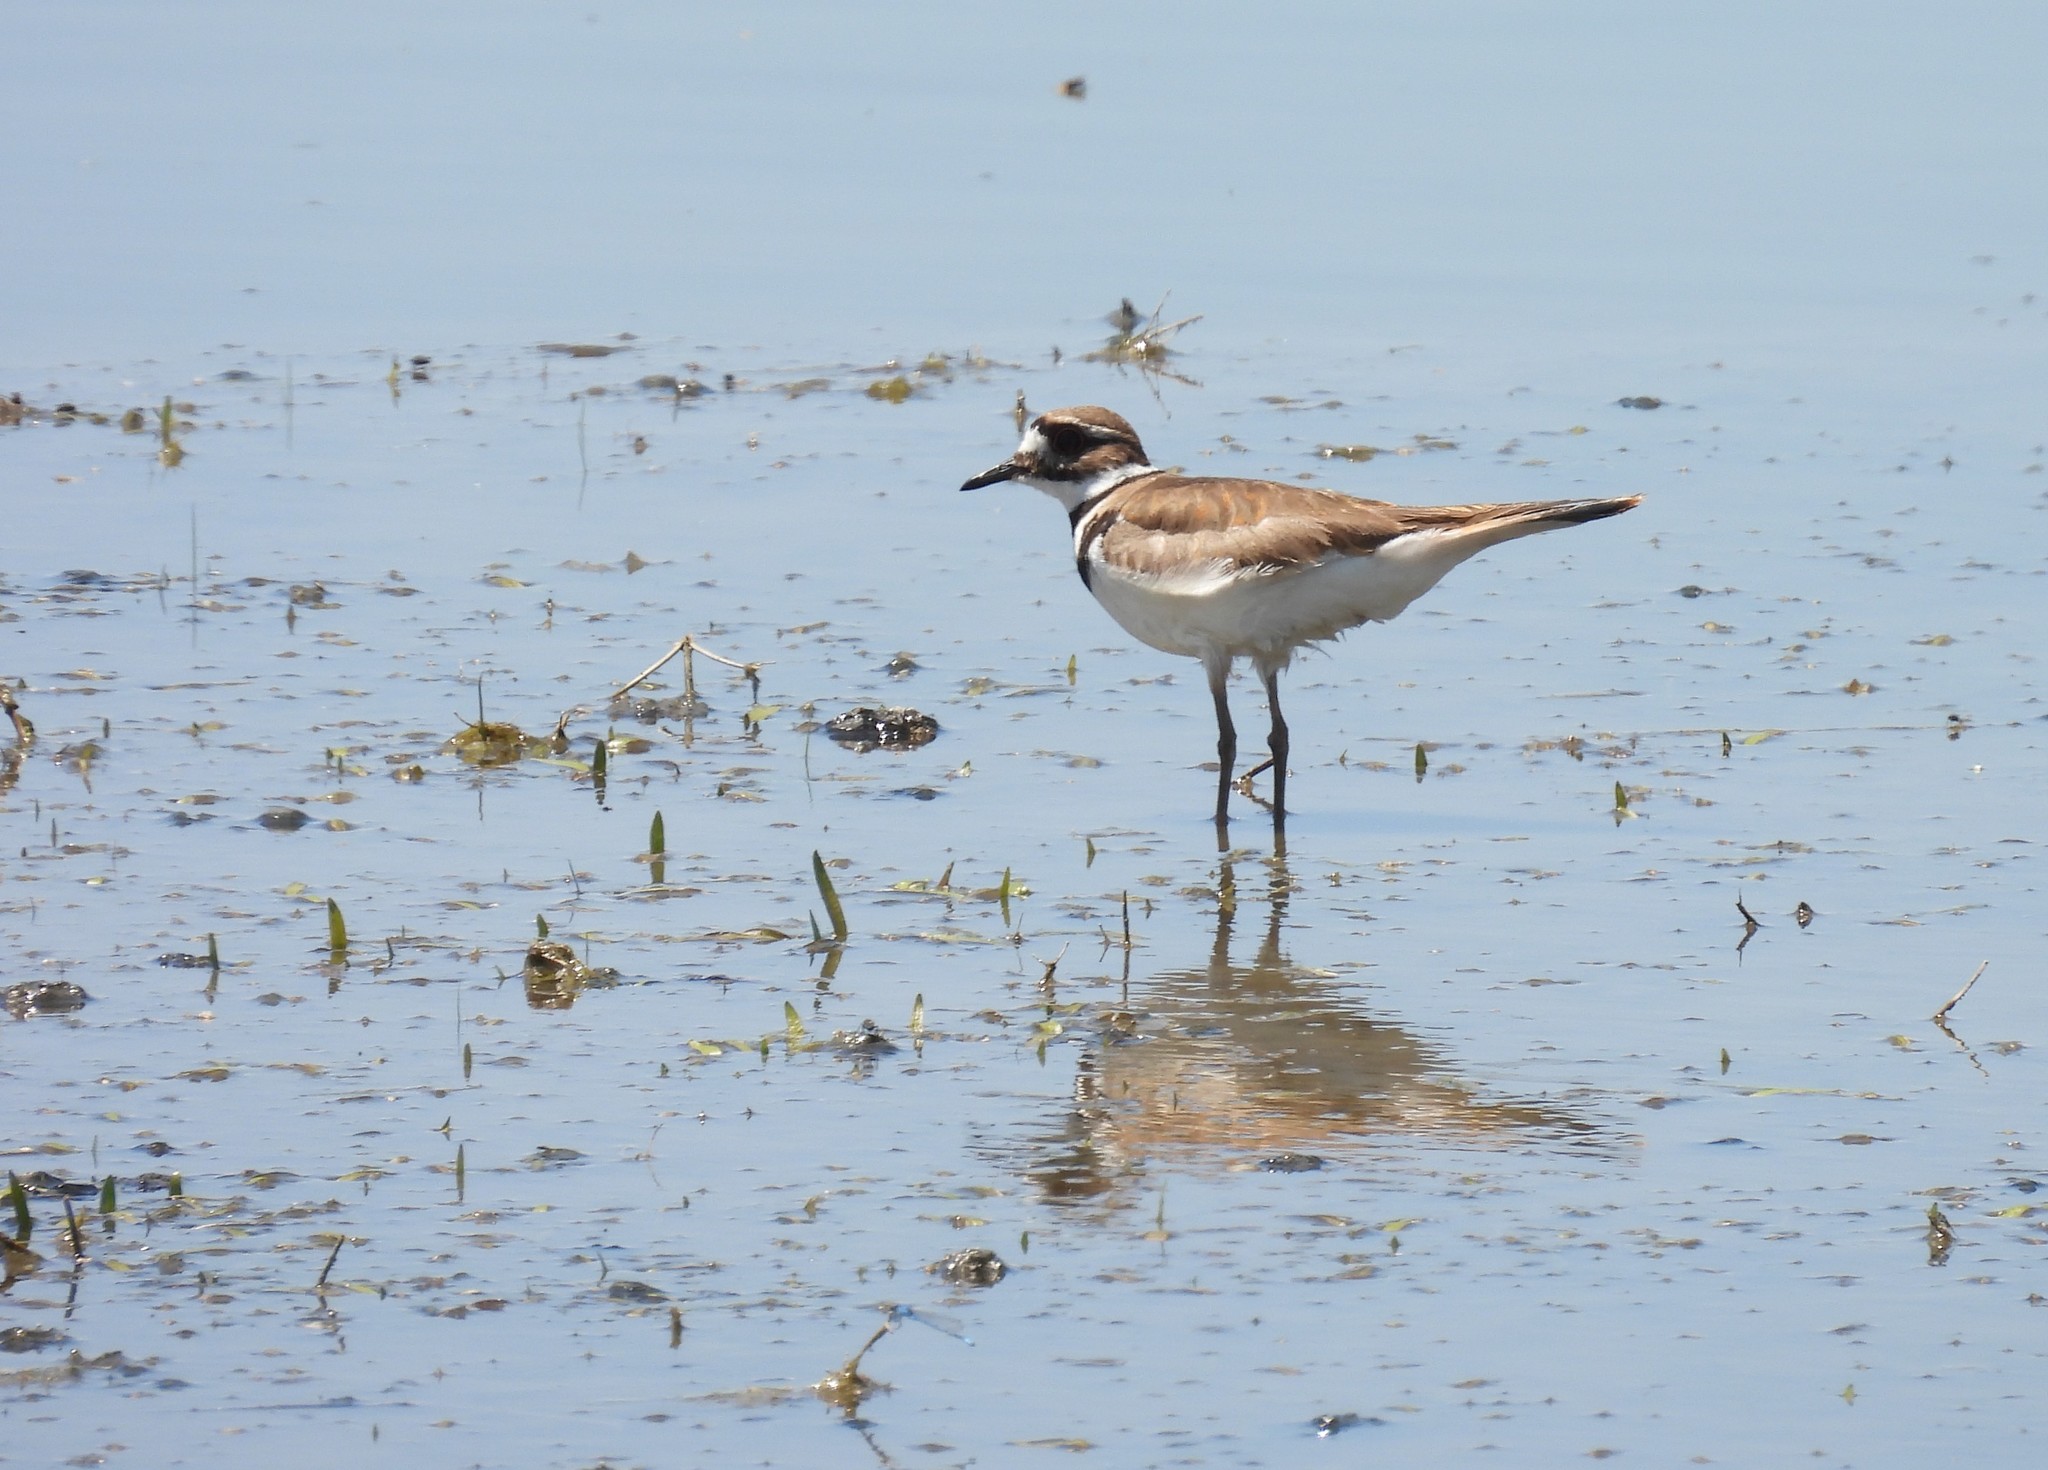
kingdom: Animalia
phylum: Chordata
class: Aves
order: Charadriiformes
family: Charadriidae
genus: Charadrius
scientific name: Charadrius vociferus
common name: Killdeer
